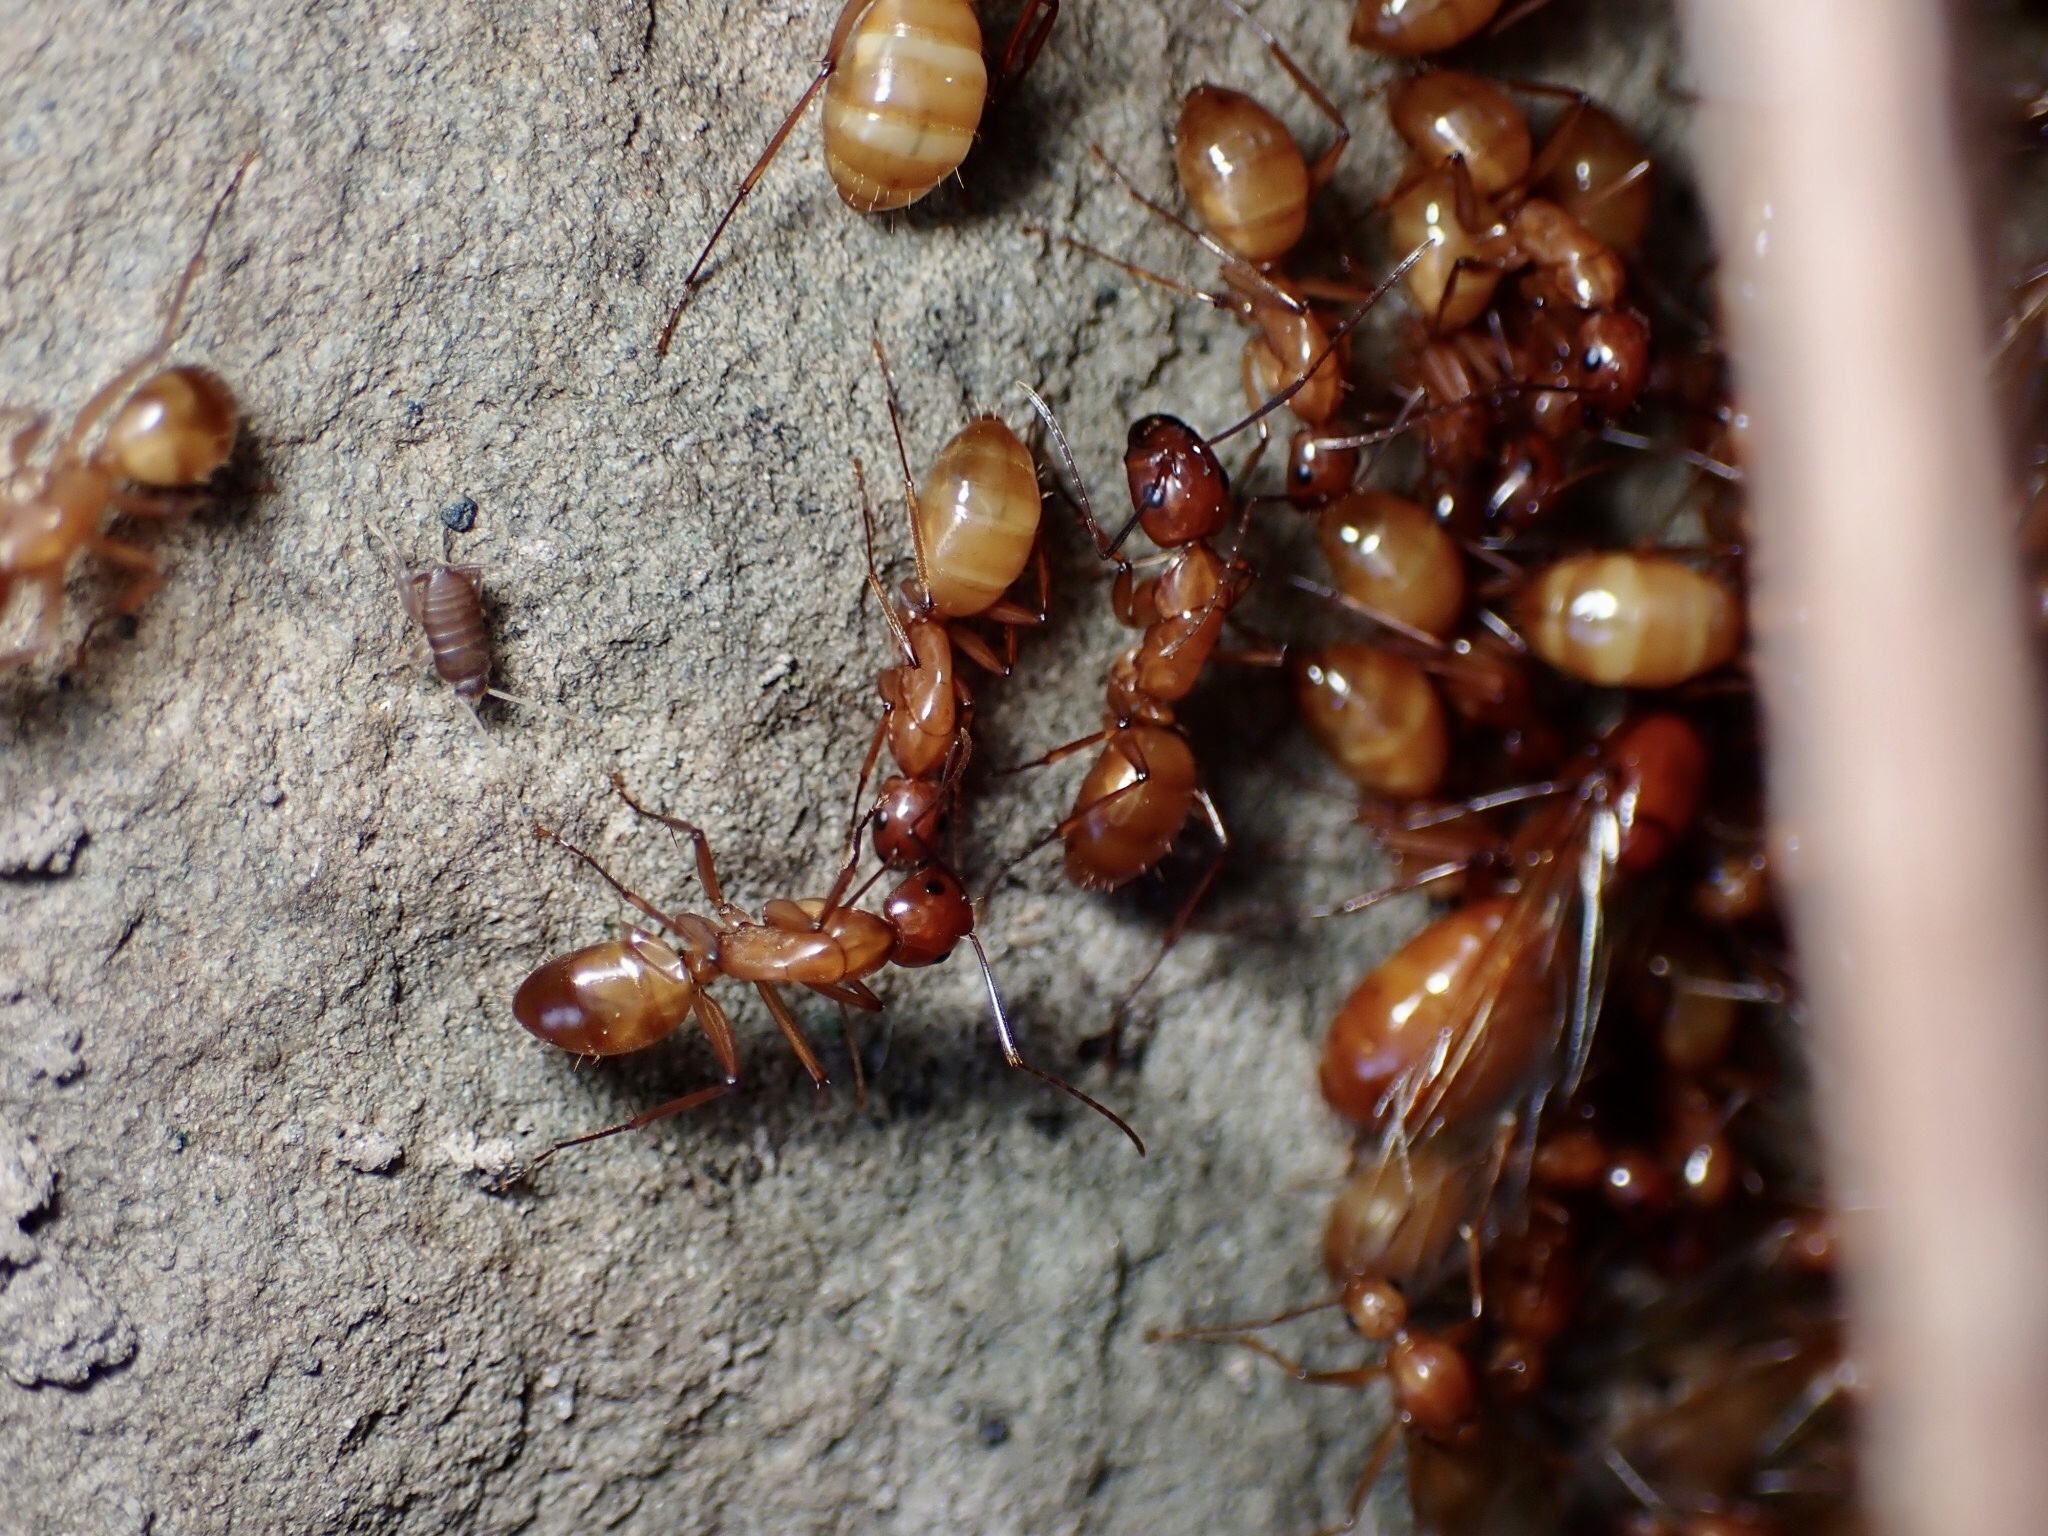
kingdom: Animalia
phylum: Arthropoda
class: Insecta
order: Hymenoptera
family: Formicidae
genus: Camponotus
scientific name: Camponotus castaneus
